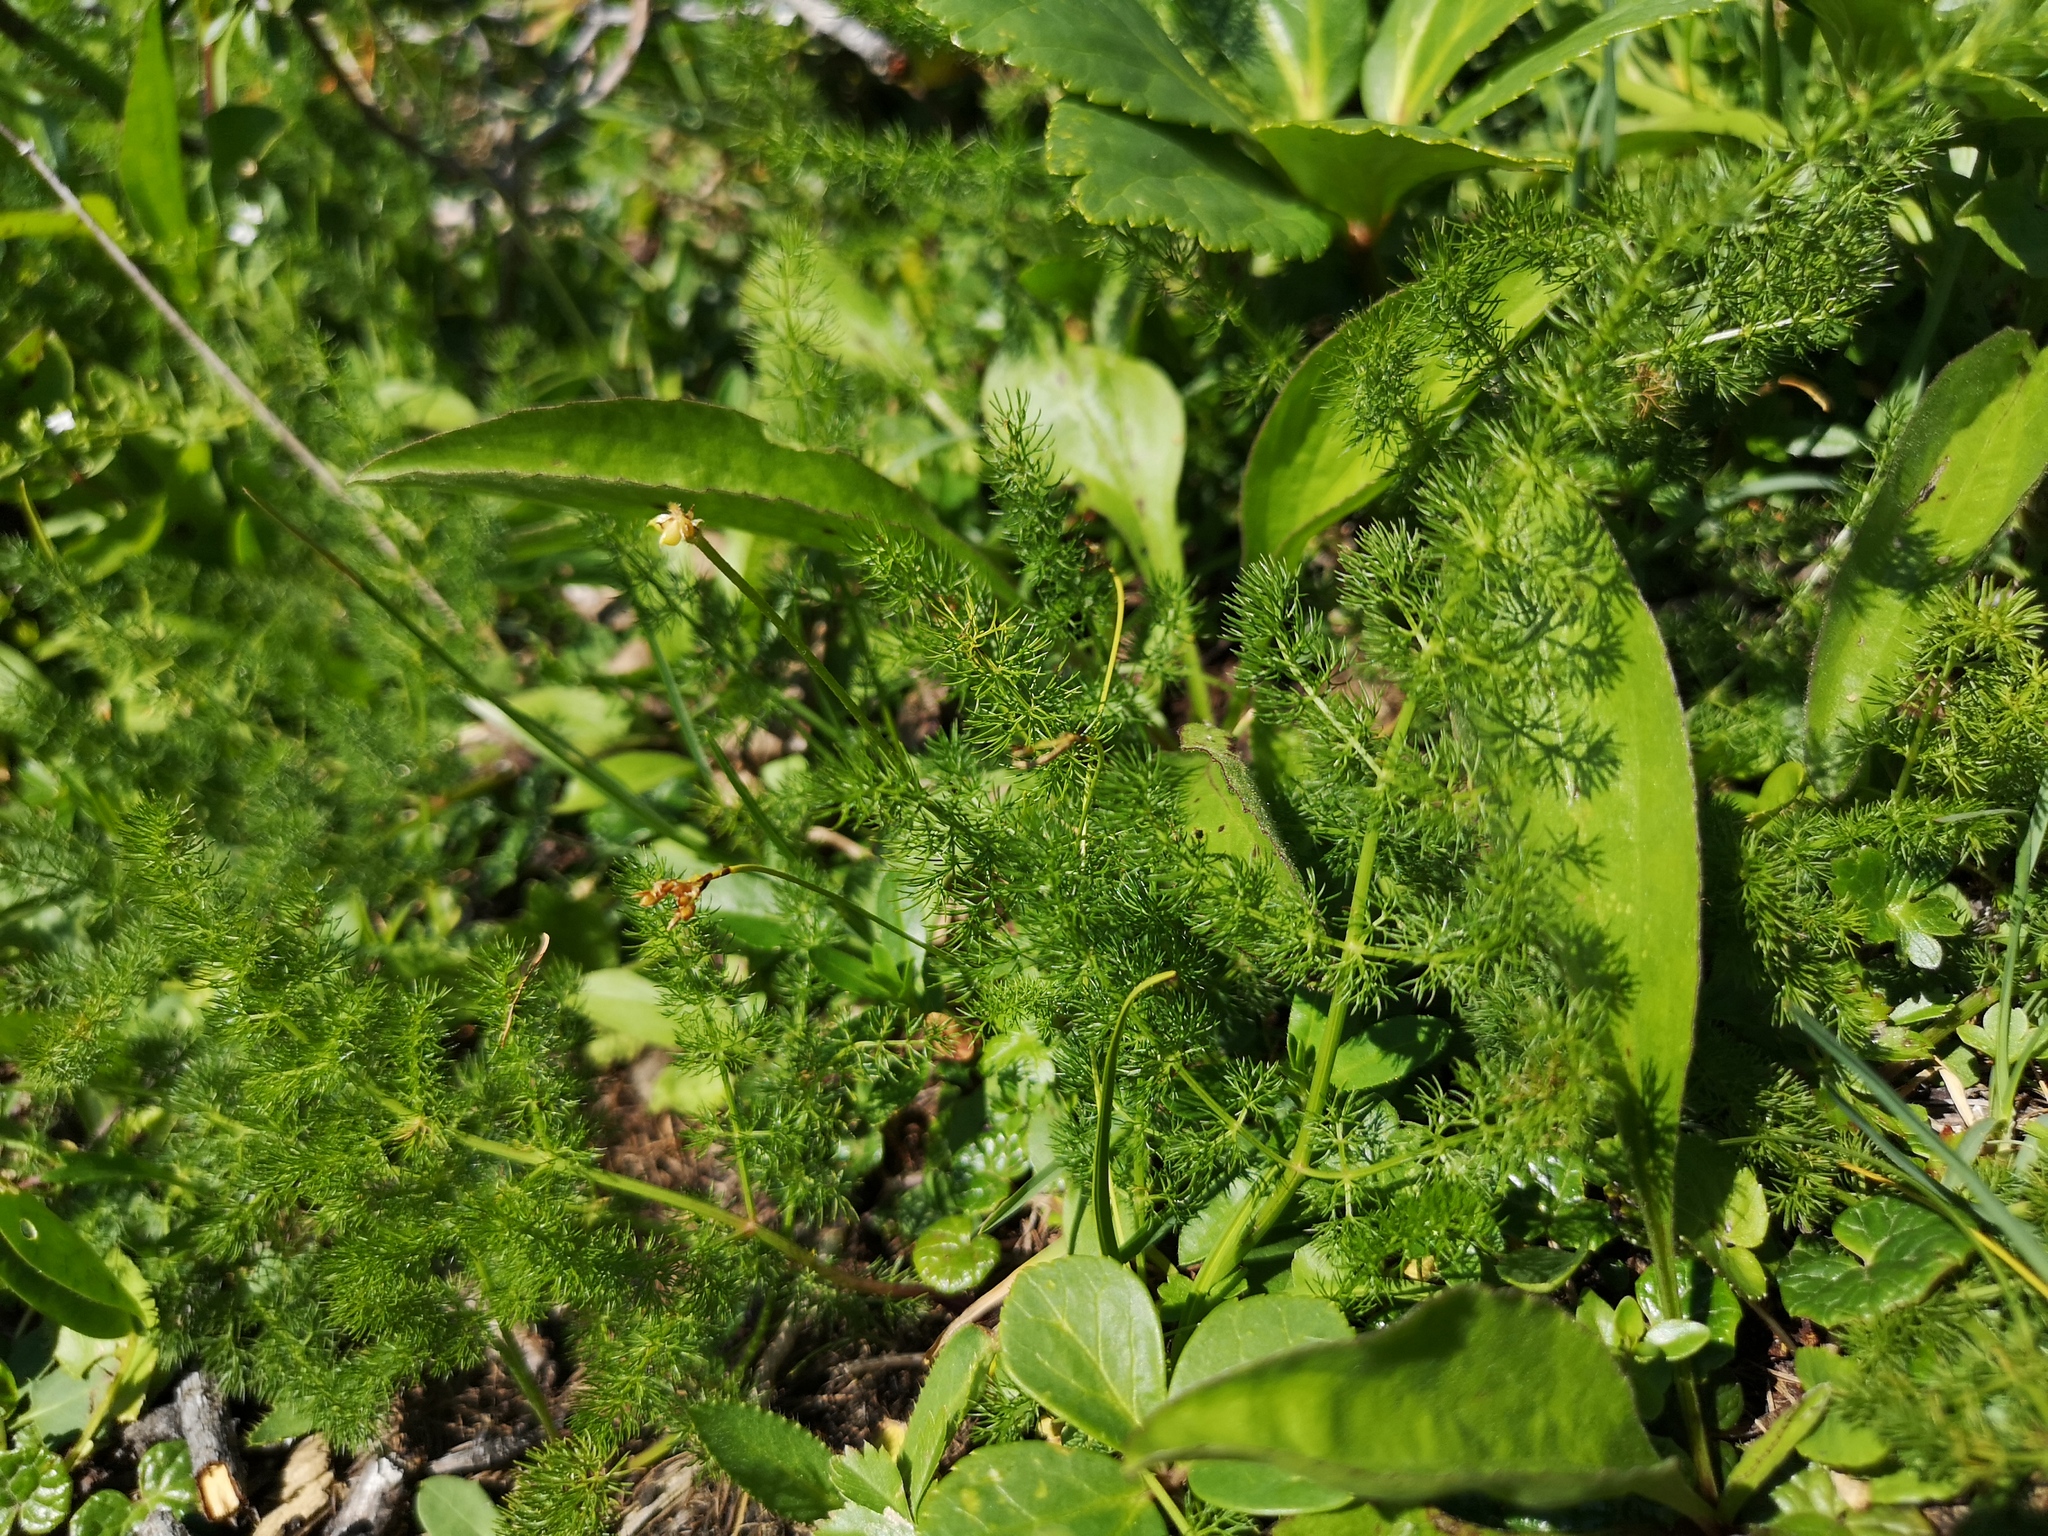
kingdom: Plantae
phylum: Tracheophyta
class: Magnoliopsida
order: Apiales
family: Apiaceae
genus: Meum
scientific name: Meum athamanticum
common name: Spignel
